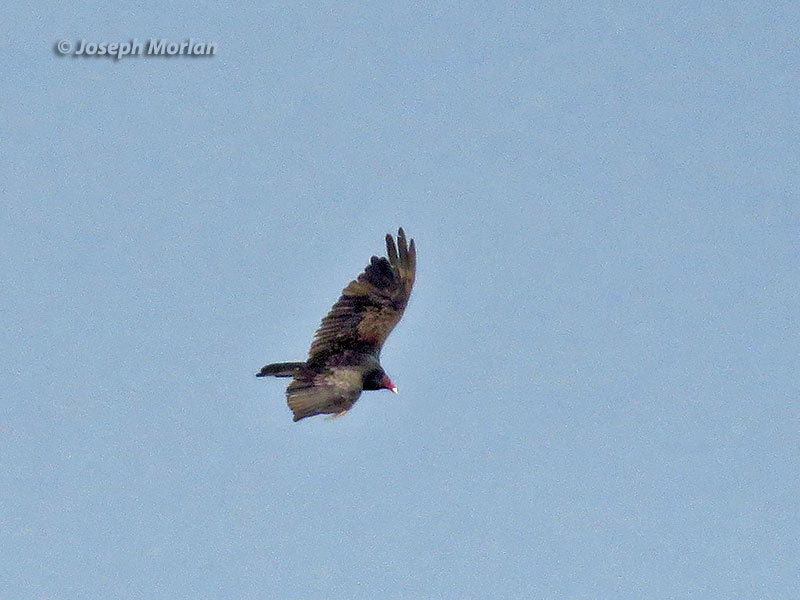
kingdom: Animalia
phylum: Chordata
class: Aves
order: Accipitriformes
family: Cathartidae
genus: Cathartes
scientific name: Cathartes aura
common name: Turkey vulture
